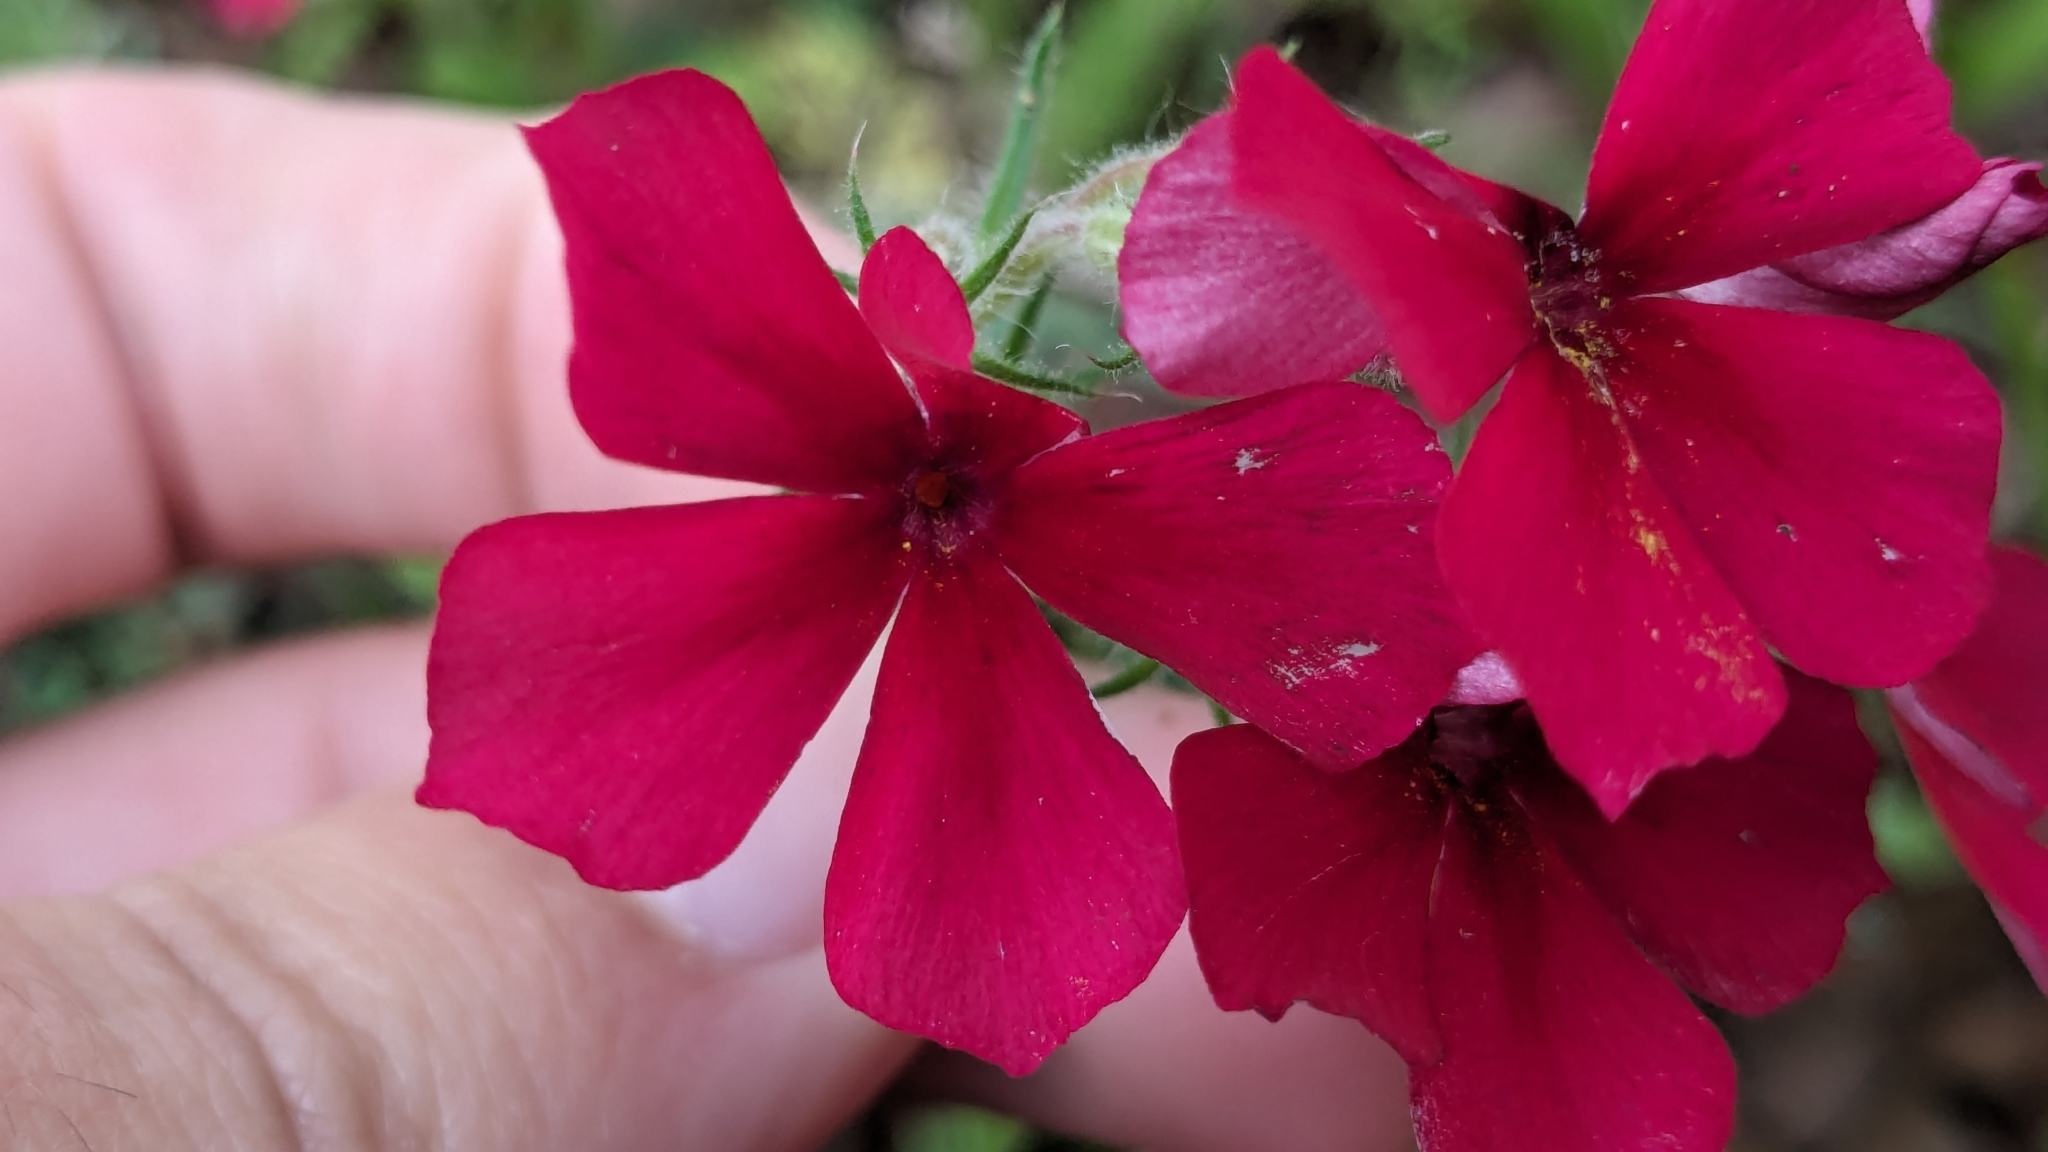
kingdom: Plantae
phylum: Tracheophyta
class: Magnoliopsida
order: Ericales
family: Polemoniaceae
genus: Phlox
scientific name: Phlox drummondii
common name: Drummond's phlox
